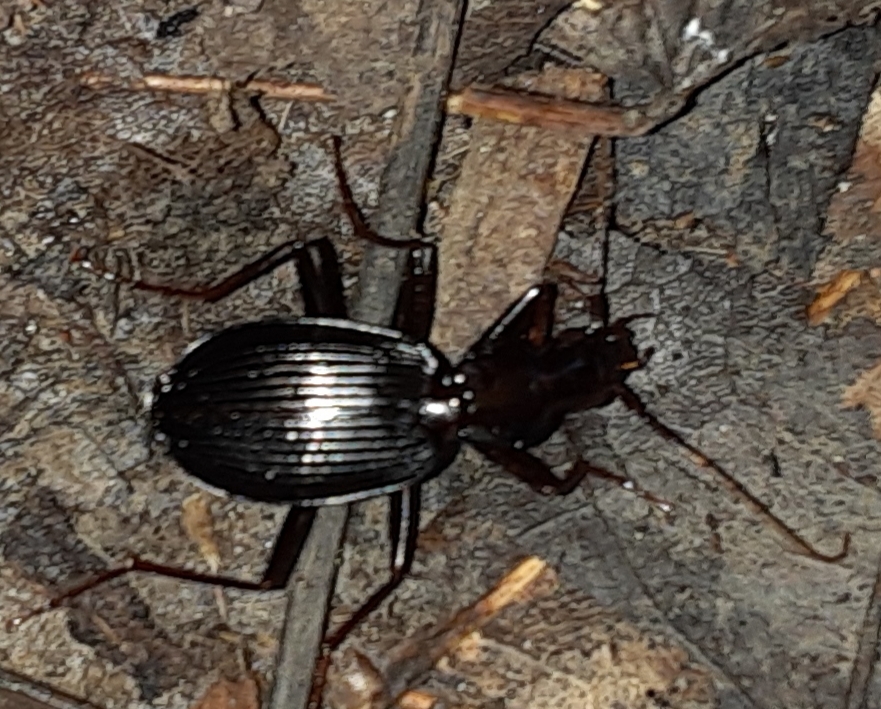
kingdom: Animalia
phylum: Arthropoda
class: Insecta
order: Coleoptera
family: Carabidae
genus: Platynus
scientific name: Platynus angustatus
